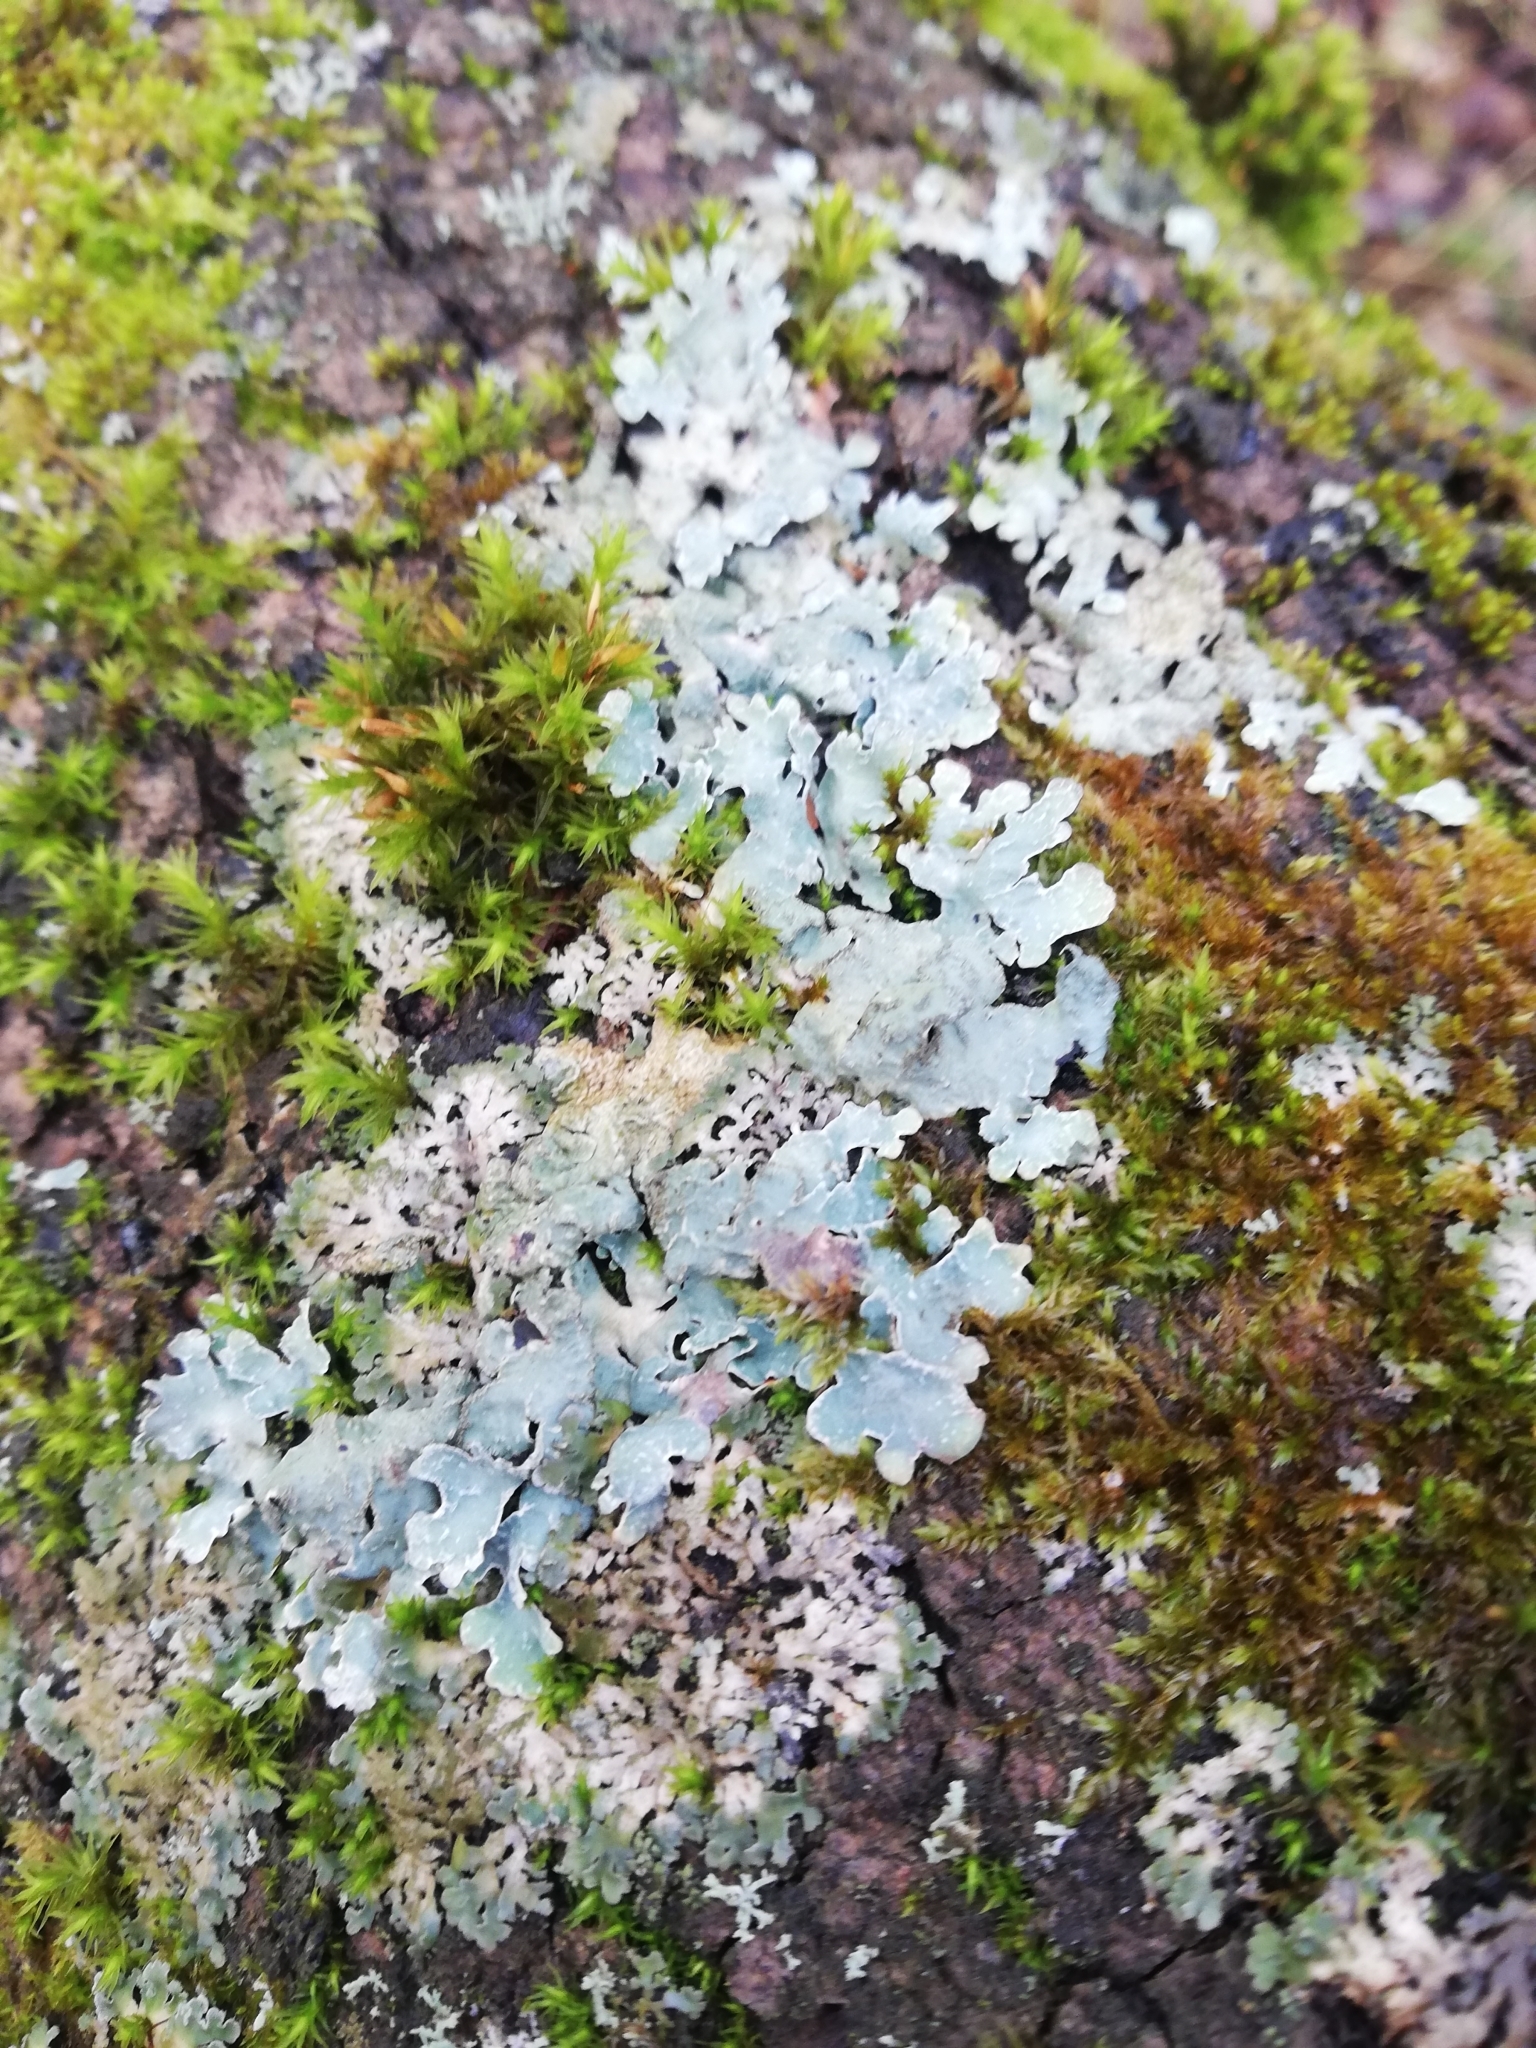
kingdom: Fungi
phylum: Ascomycota
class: Lecanoromycetes
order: Lecanorales
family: Parmeliaceae
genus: Parmelia
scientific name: Parmelia sulcata
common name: Netted shield lichen
